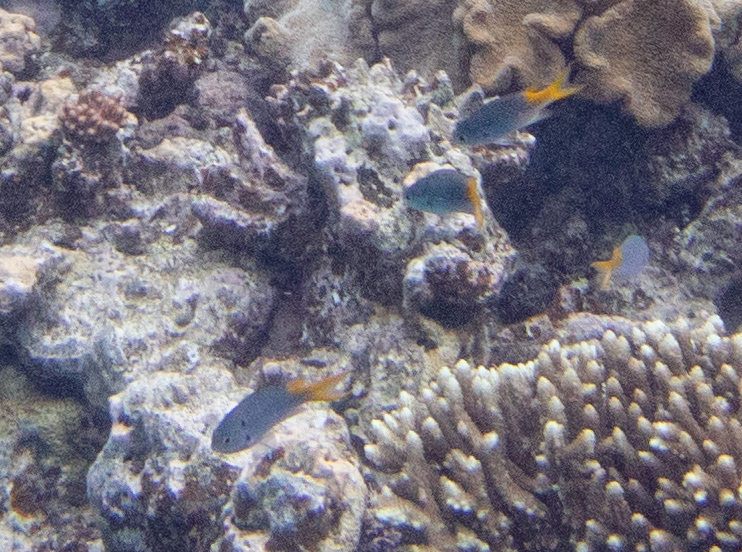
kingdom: Animalia
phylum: Chordata
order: Perciformes
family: Pomacentridae
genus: Neopomacentrus
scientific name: Neopomacentrus azysron
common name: Yellow-tail damsel
